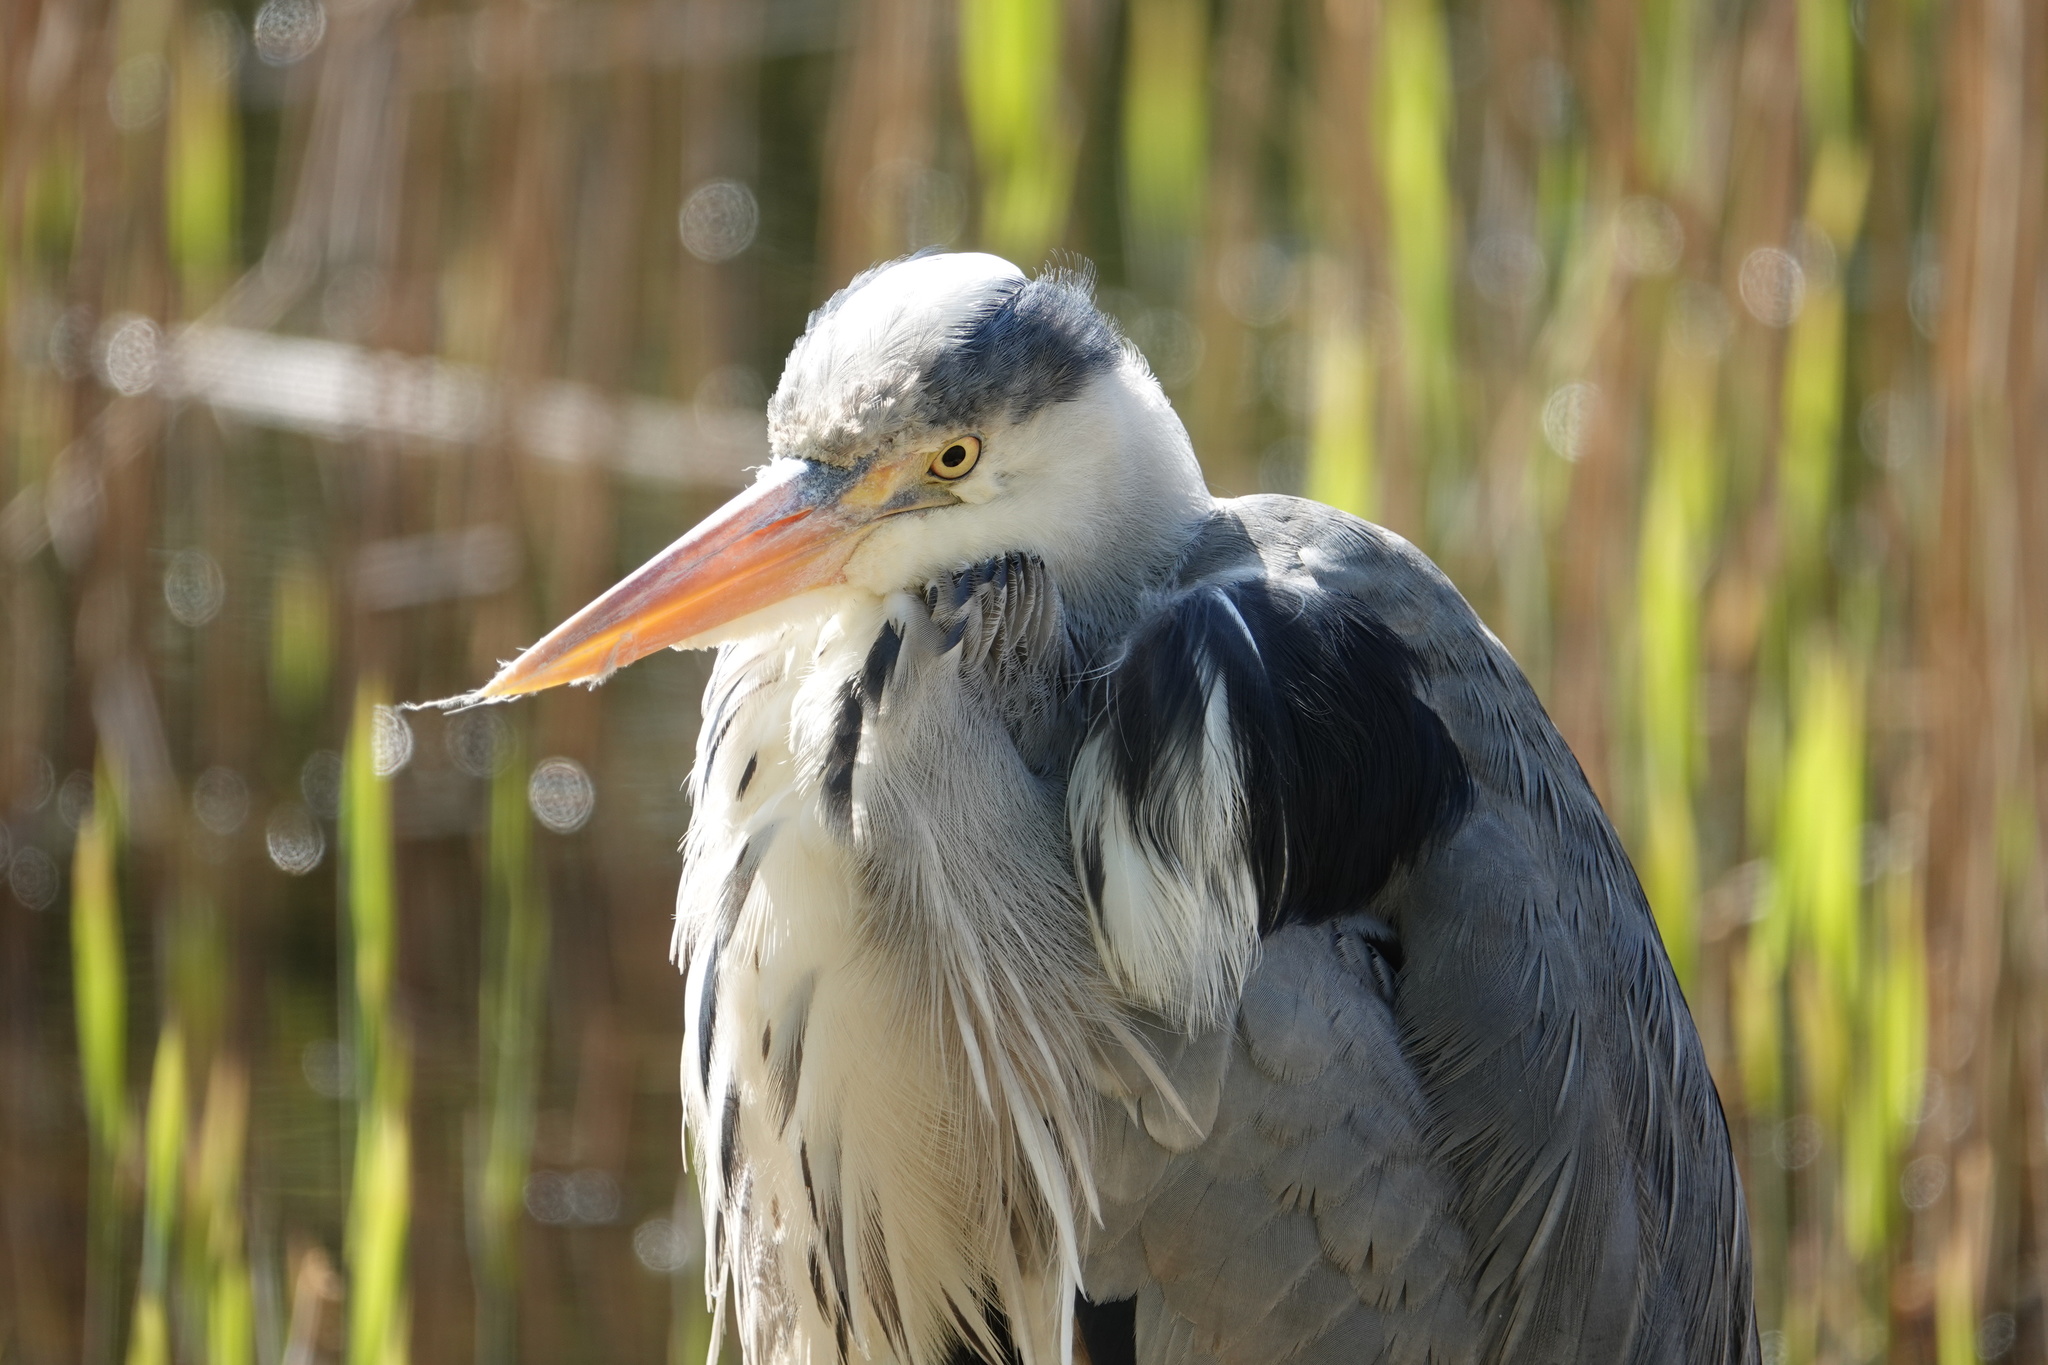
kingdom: Animalia
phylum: Chordata
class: Aves
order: Pelecaniformes
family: Ardeidae
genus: Ardea
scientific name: Ardea cinerea
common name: Grey heron
